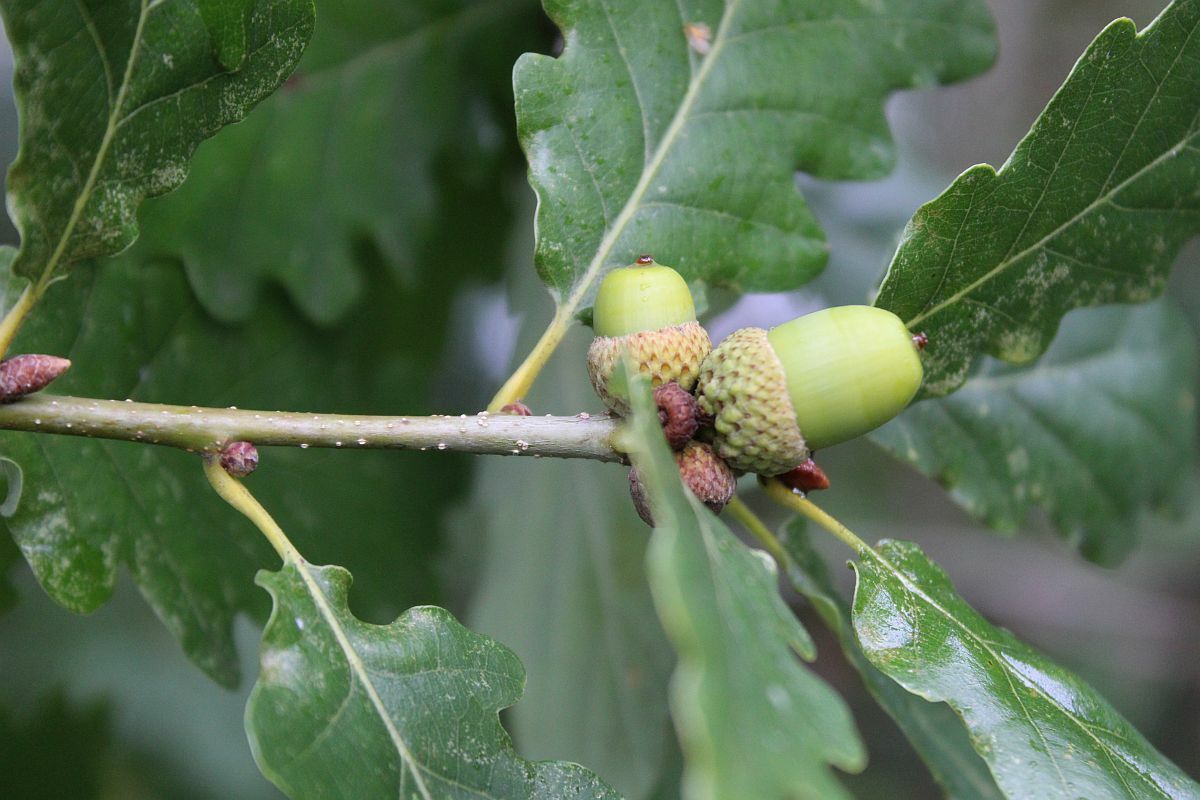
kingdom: Plantae
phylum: Tracheophyta
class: Magnoliopsida
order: Fagales
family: Fagaceae
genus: Quercus
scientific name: Quercus petraea
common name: Sessile oak
